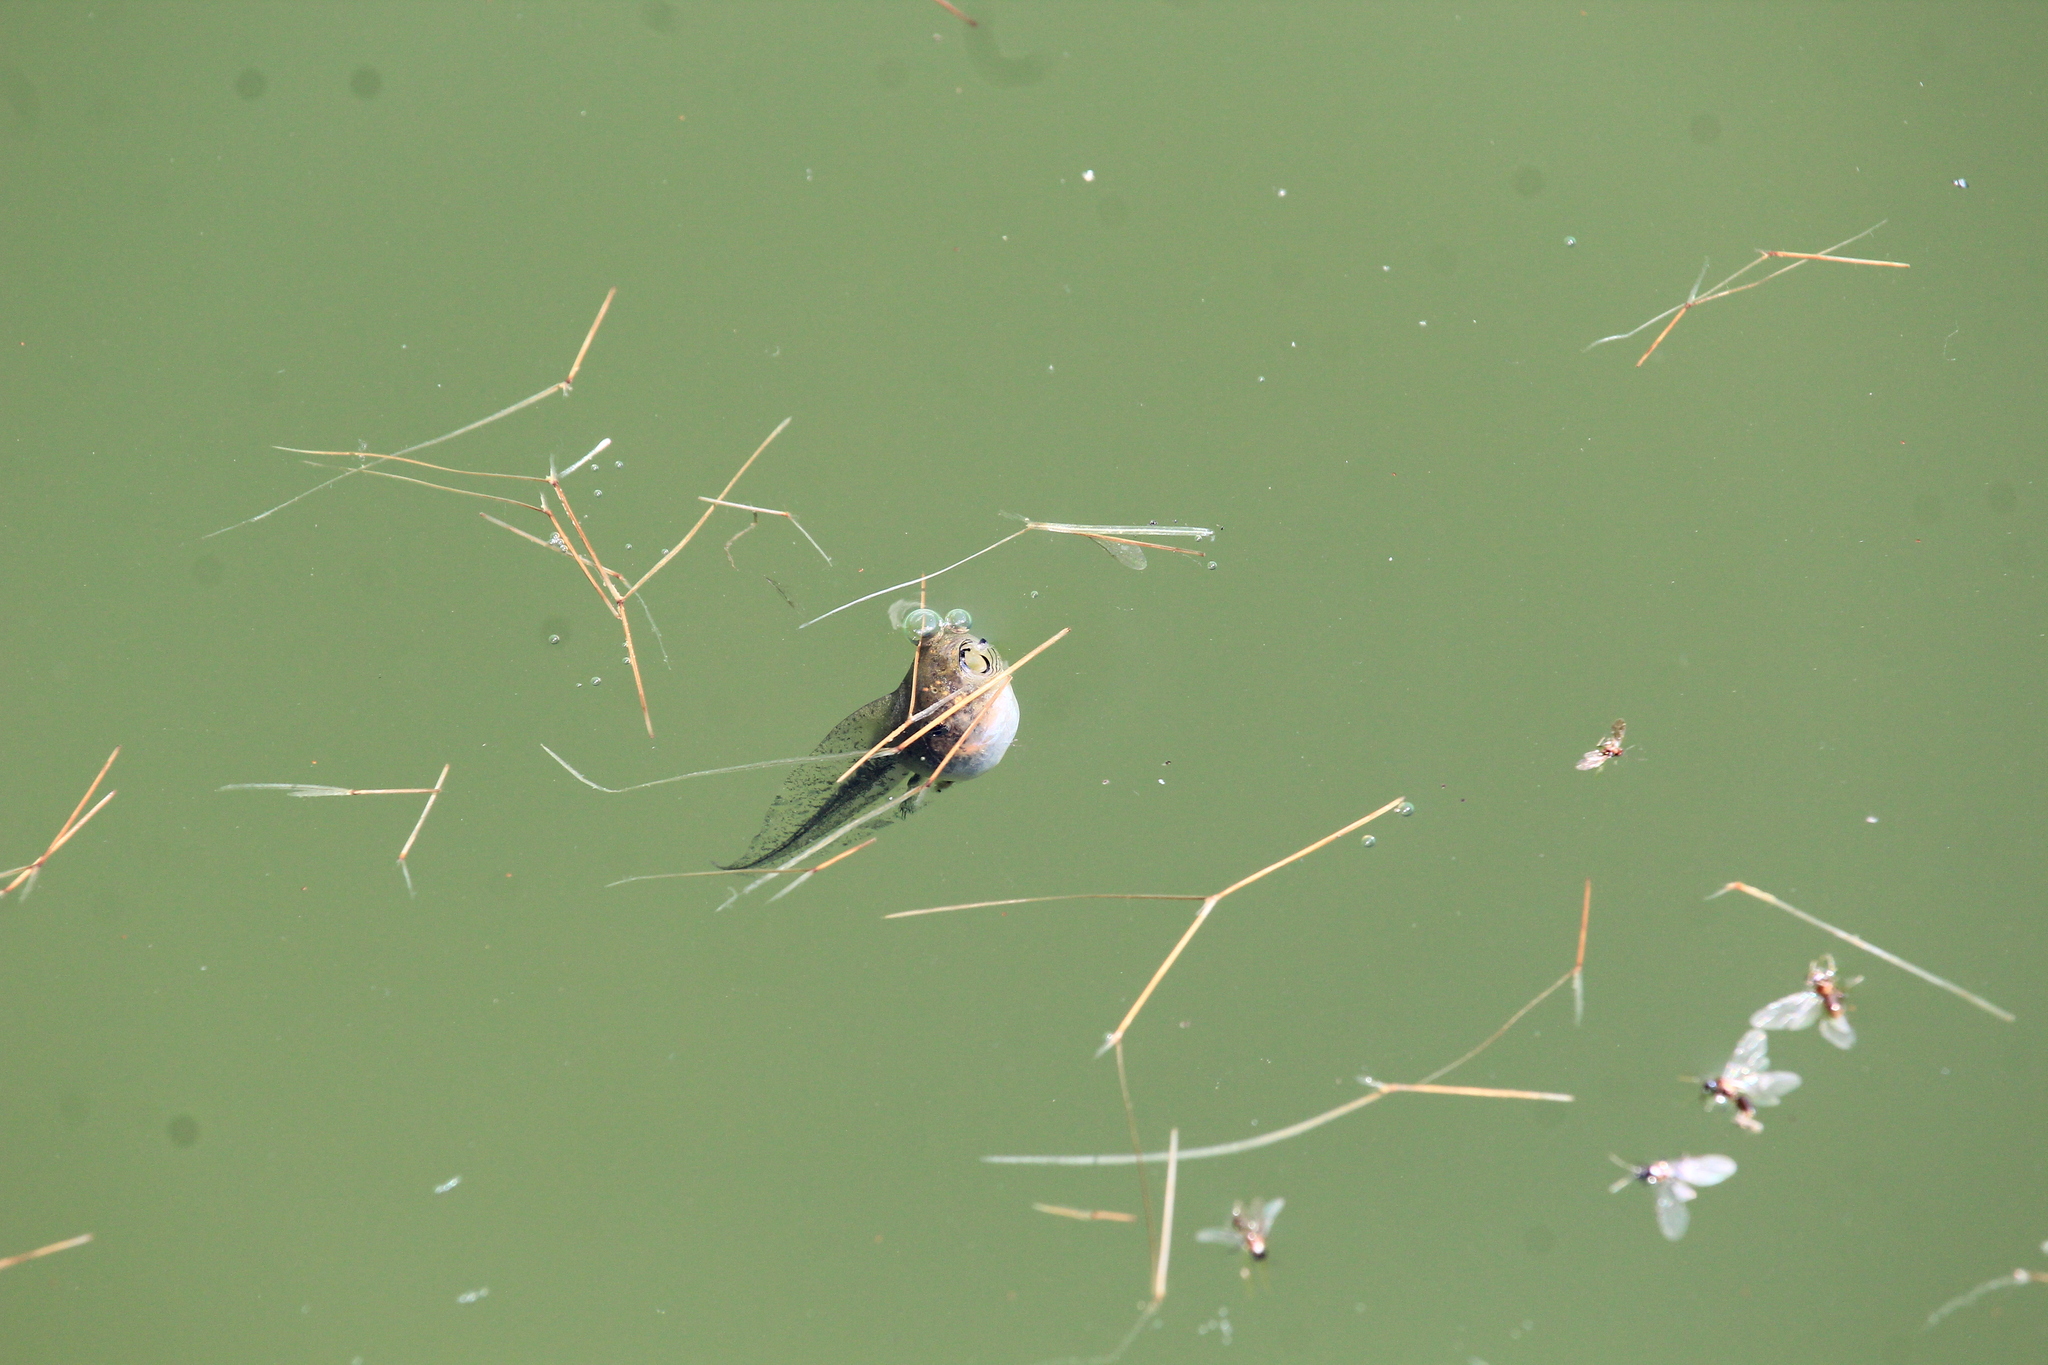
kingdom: Animalia
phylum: Chordata
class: Amphibia
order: Anura
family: Hylidae
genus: Hyla
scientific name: Hyla orientalis
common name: Caucasian treefrog
